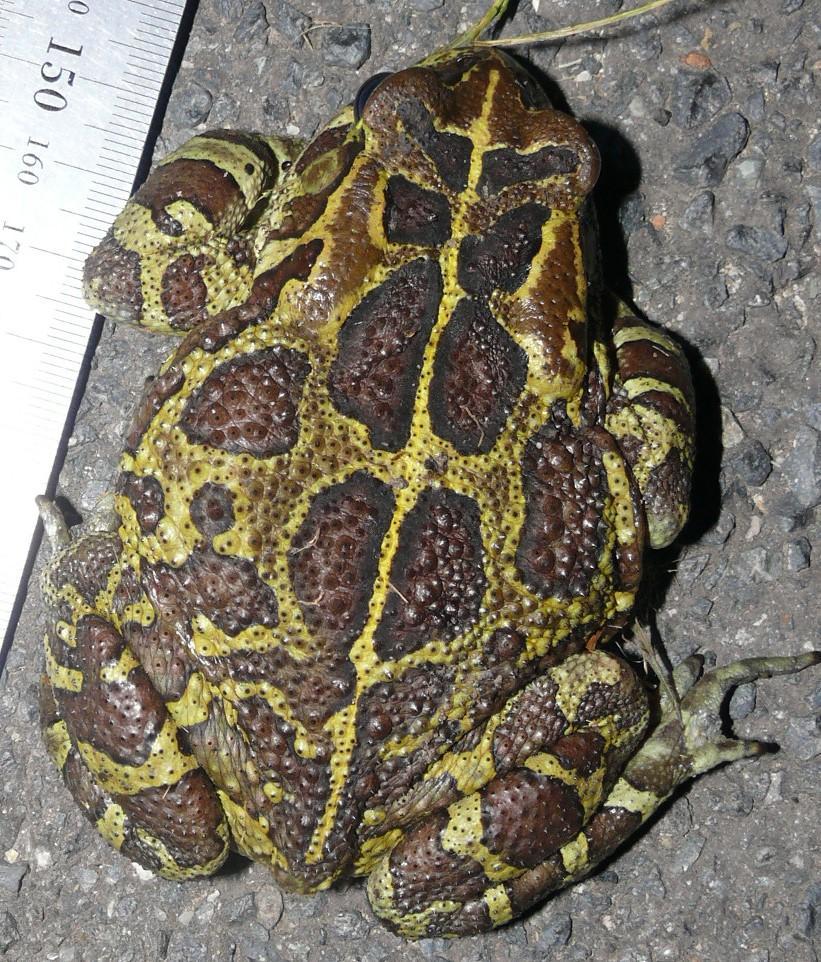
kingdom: Animalia
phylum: Chordata
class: Amphibia
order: Anura
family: Bufonidae
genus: Sclerophrys
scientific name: Sclerophrys pantherina
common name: Panther toad
